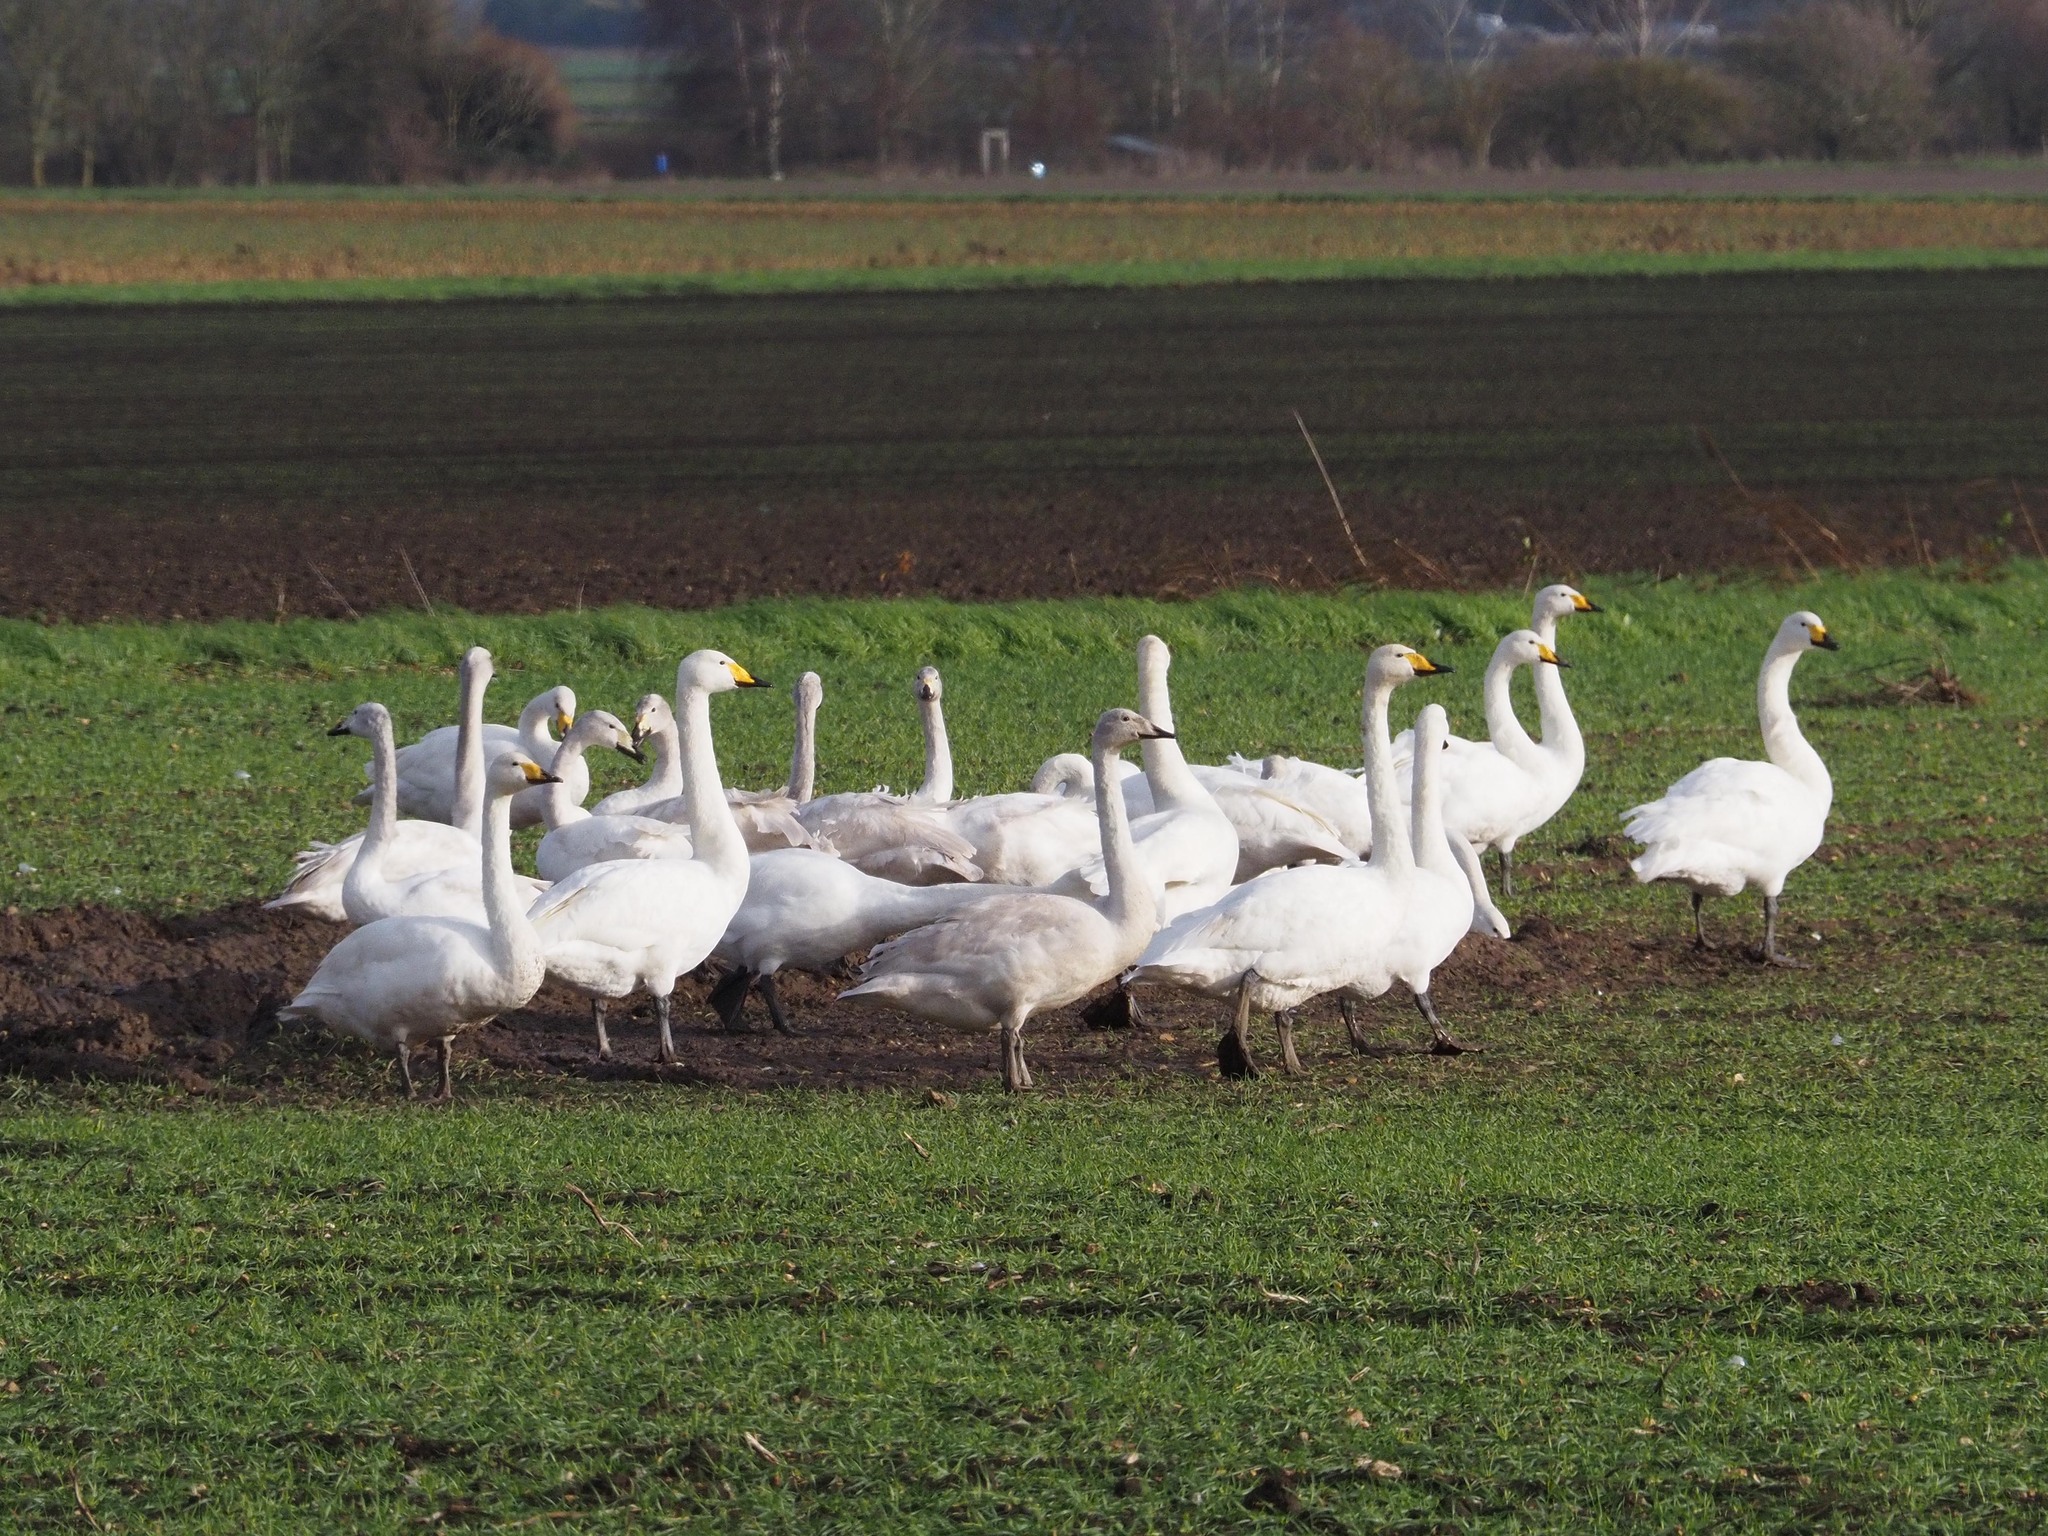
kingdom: Animalia
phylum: Chordata
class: Aves
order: Anseriformes
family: Anatidae
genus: Cygnus
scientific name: Cygnus cygnus
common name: Whooper swan
